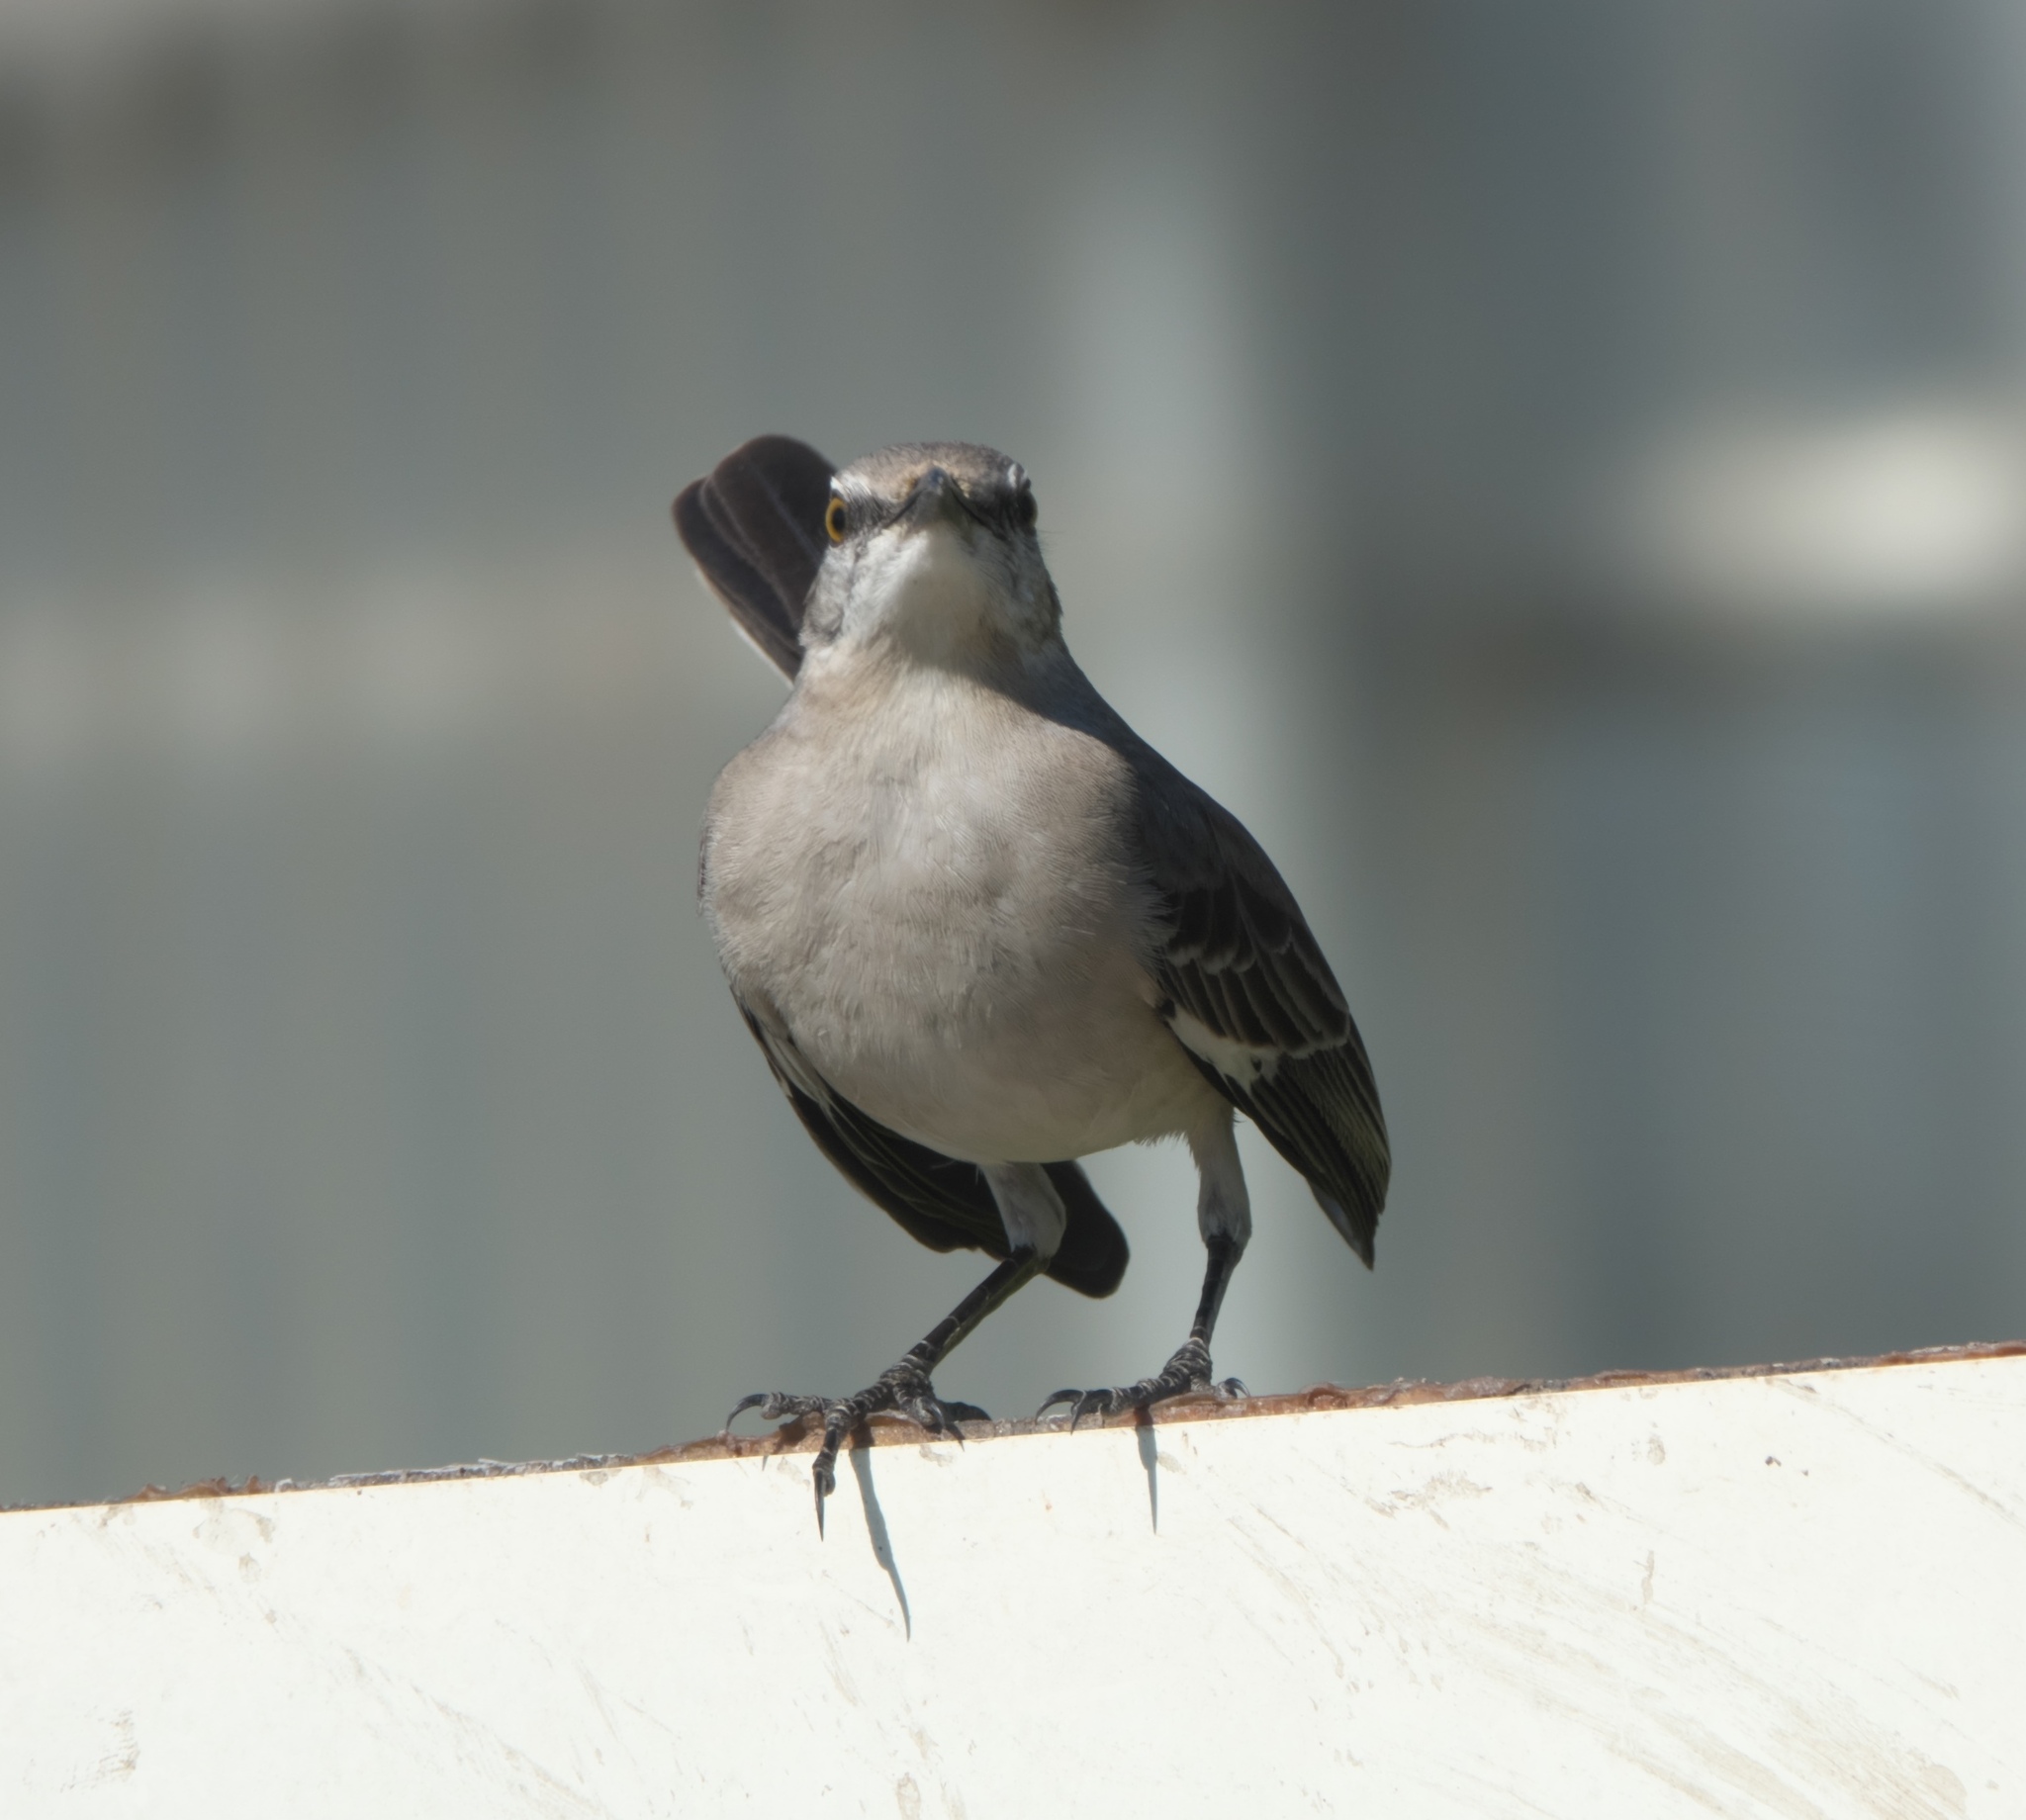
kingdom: Animalia
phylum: Chordata
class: Aves
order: Passeriformes
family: Mimidae
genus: Mimus
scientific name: Mimus polyglottos
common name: Northern mockingbird
